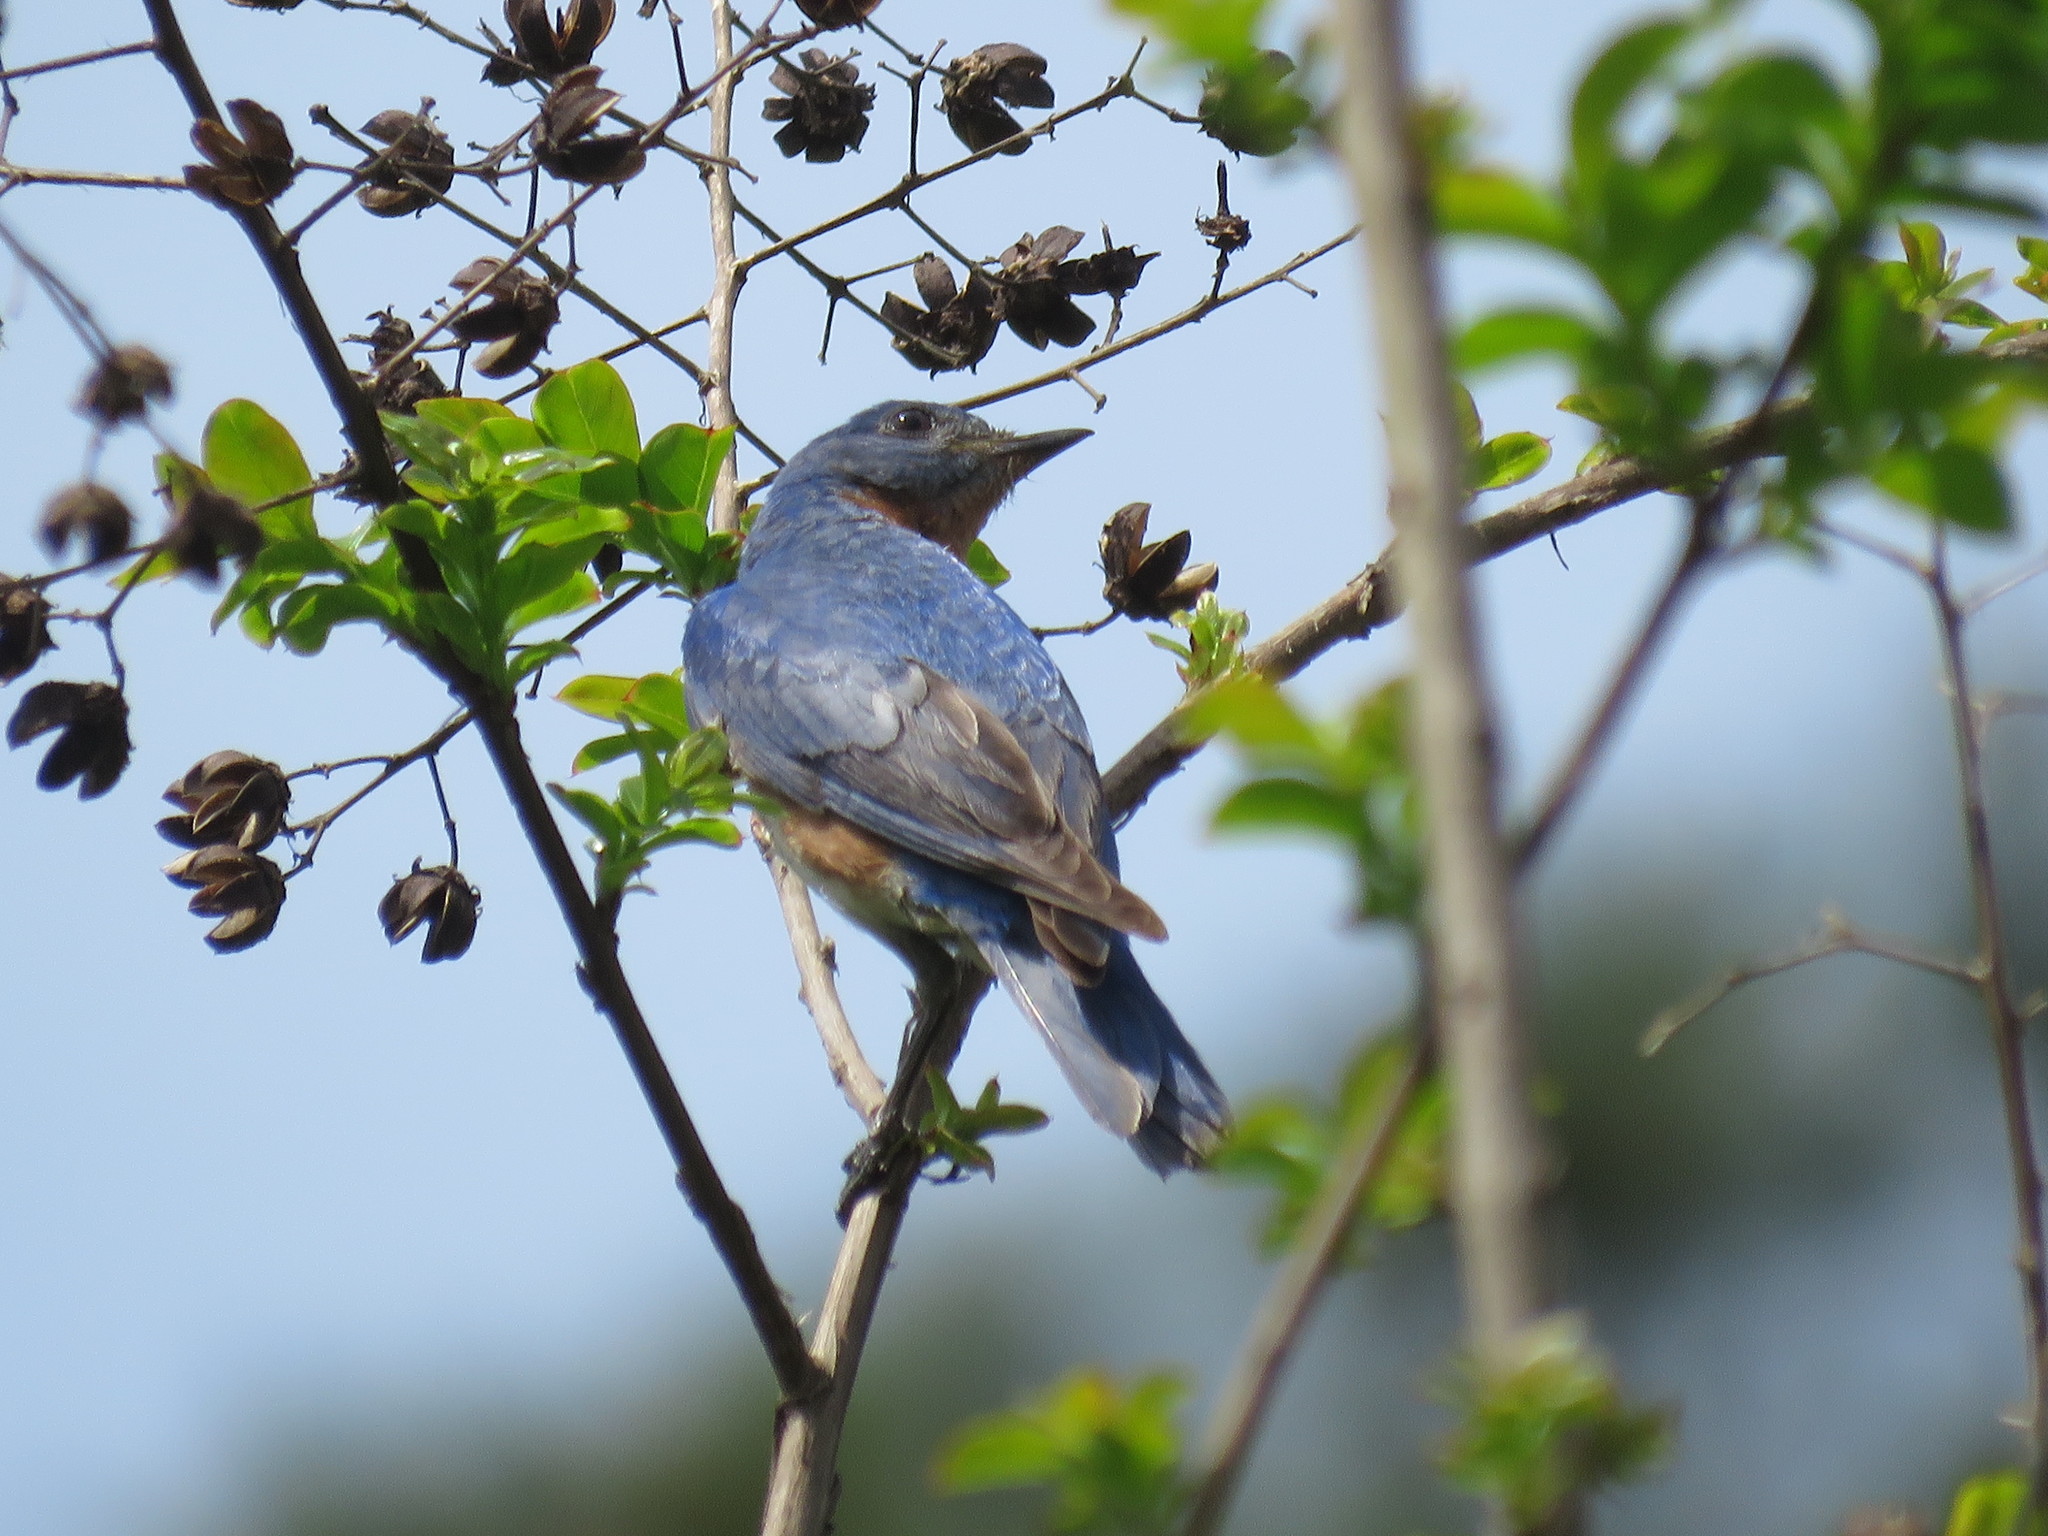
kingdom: Animalia
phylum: Chordata
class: Aves
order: Passeriformes
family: Turdidae
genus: Sialia
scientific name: Sialia sialis
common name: Eastern bluebird
